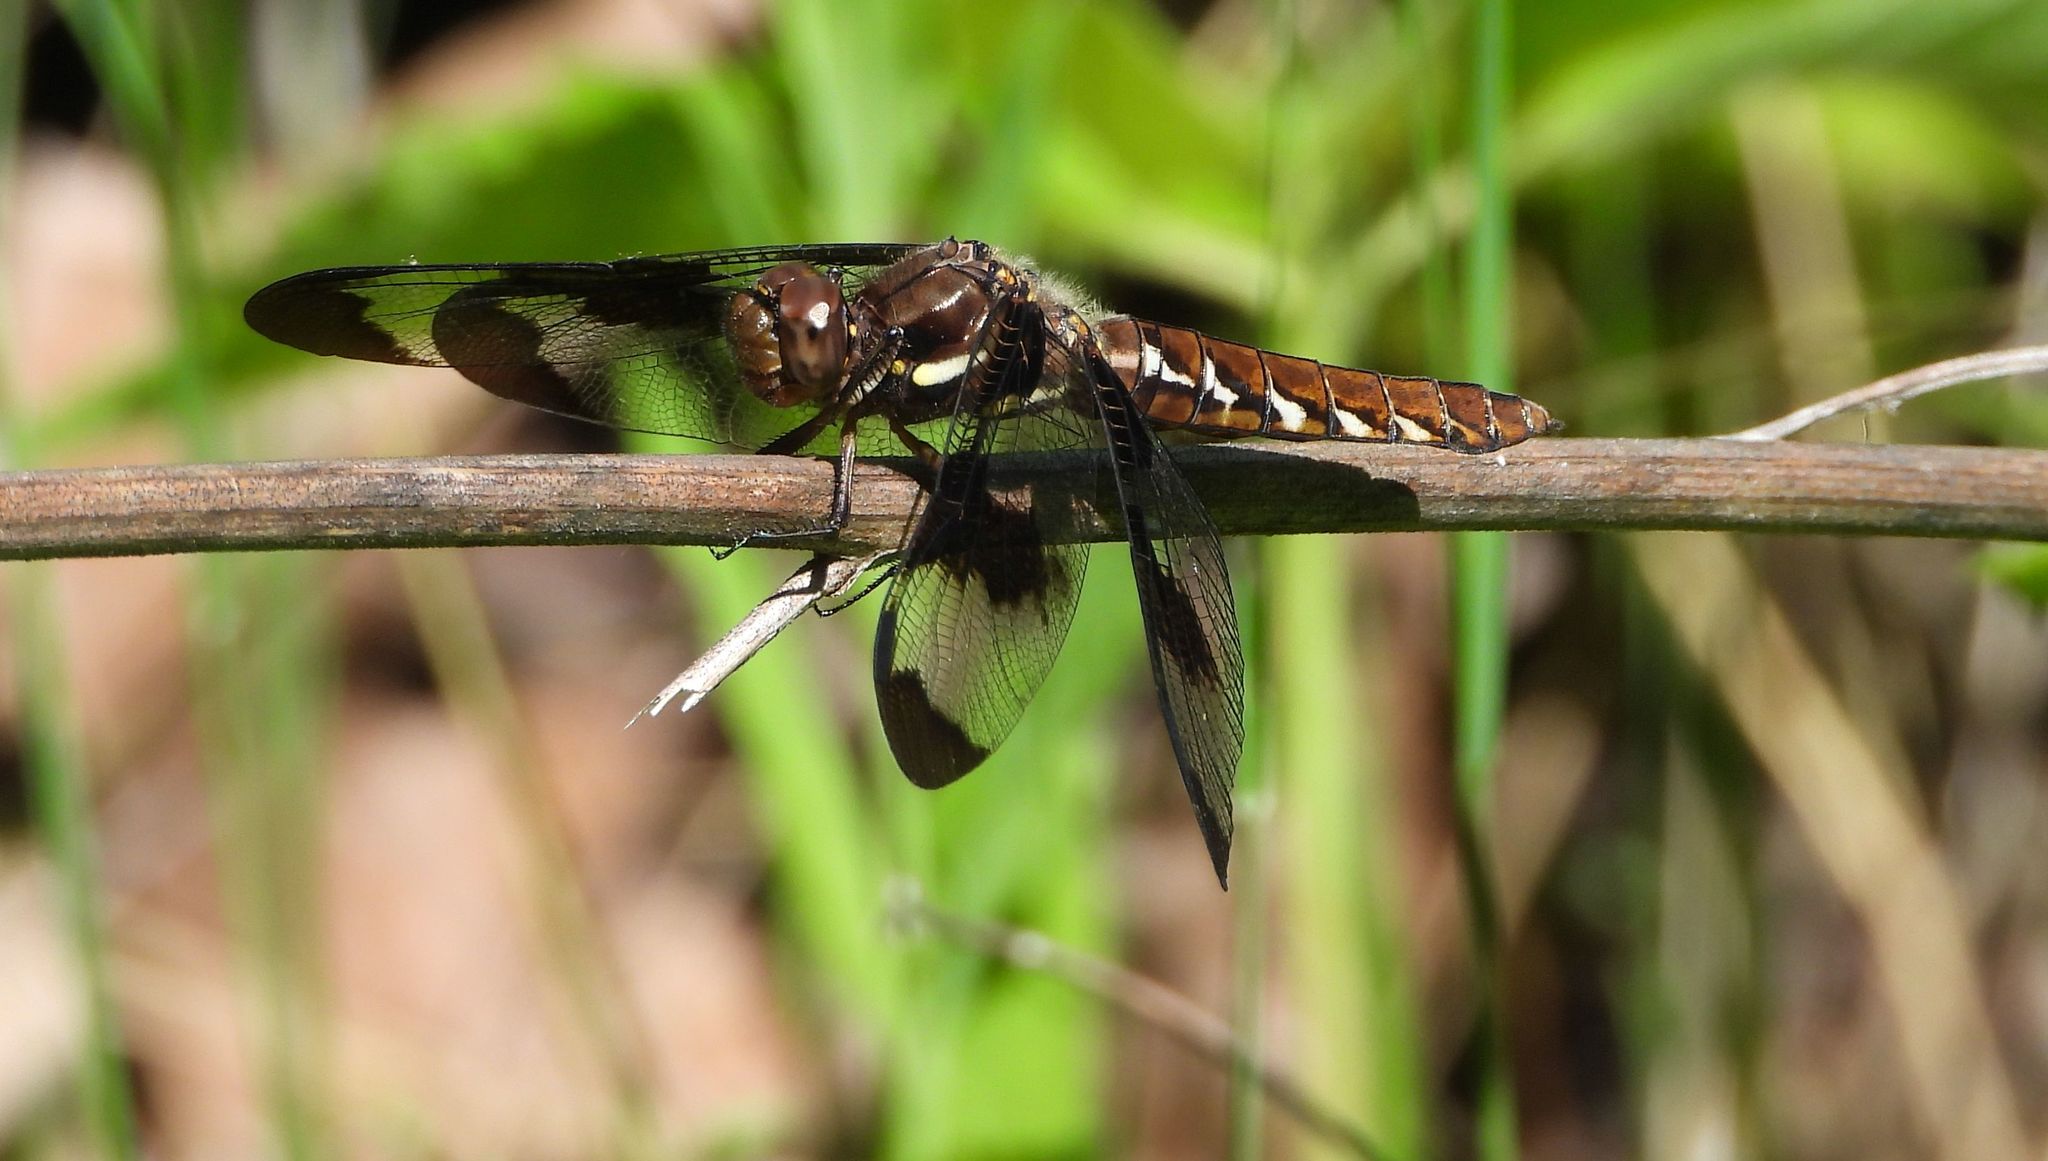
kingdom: Animalia
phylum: Arthropoda
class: Insecta
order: Odonata
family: Libellulidae
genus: Plathemis
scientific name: Plathemis lydia
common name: Common whitetail
